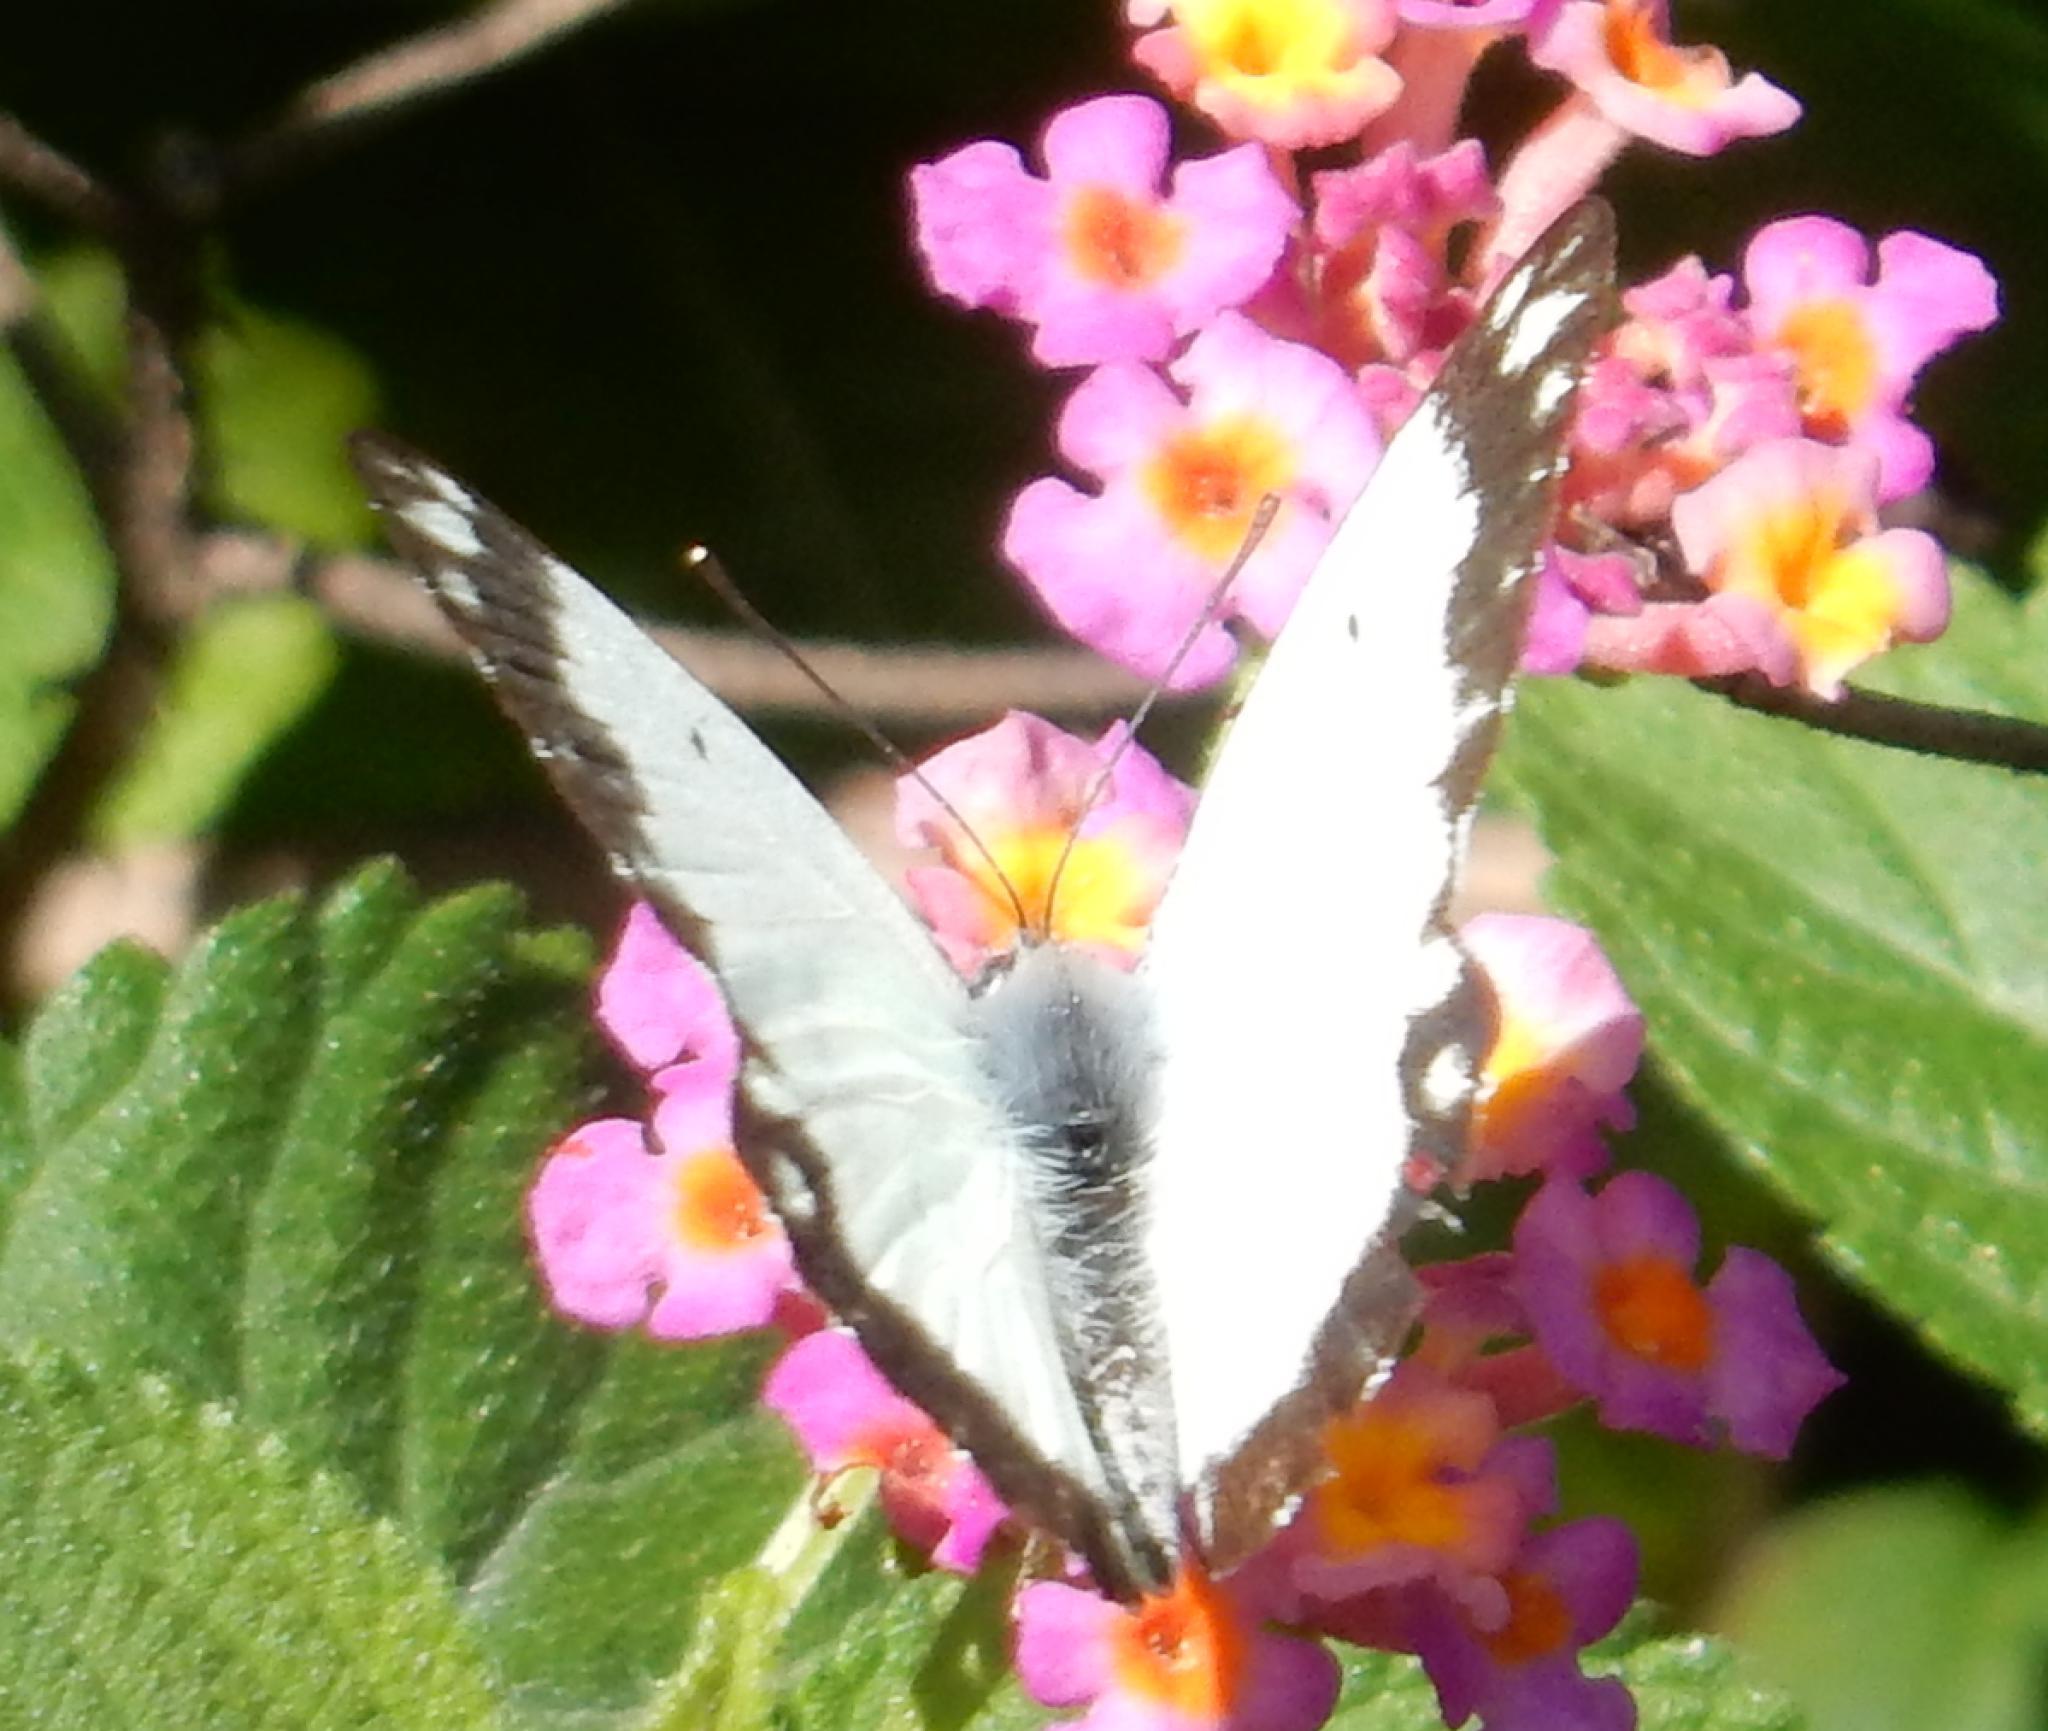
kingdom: Animalia
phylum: Arthropoda
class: Insecta
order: Lepidoptera
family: Pieridae
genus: Belenois
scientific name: Belenois creona
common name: African caper white
